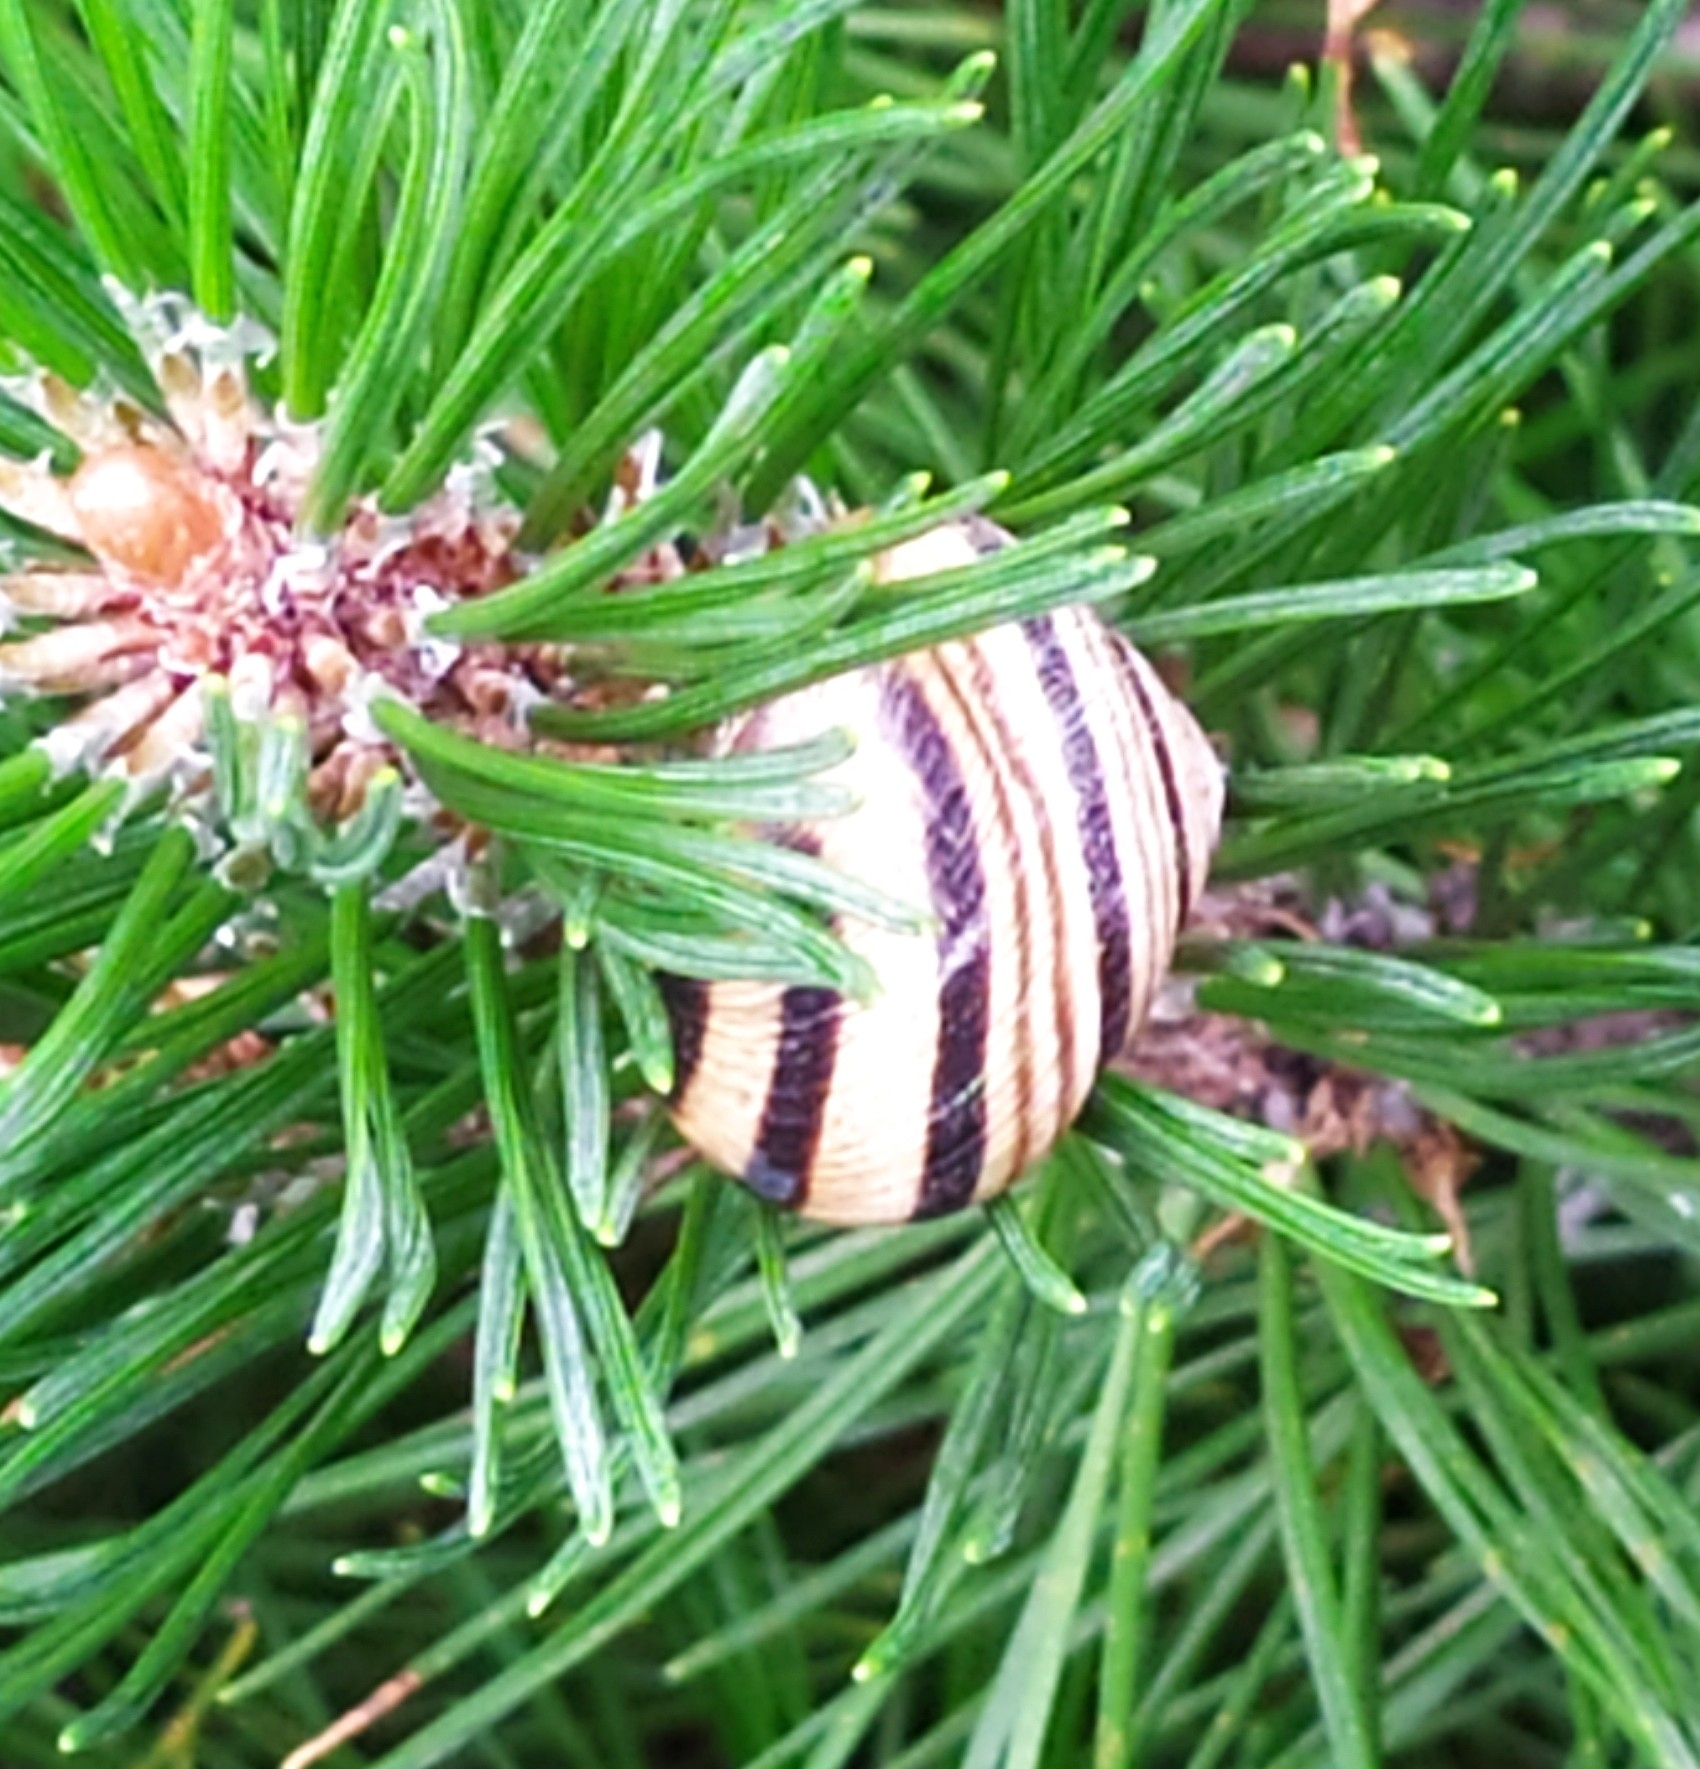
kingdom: Animalia
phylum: Mollusca
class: Gastropoda
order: Stylommatophora
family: Helicidae
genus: Caucasotachea
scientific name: Caucasotachea vindobonensis
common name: European helicid land snail
